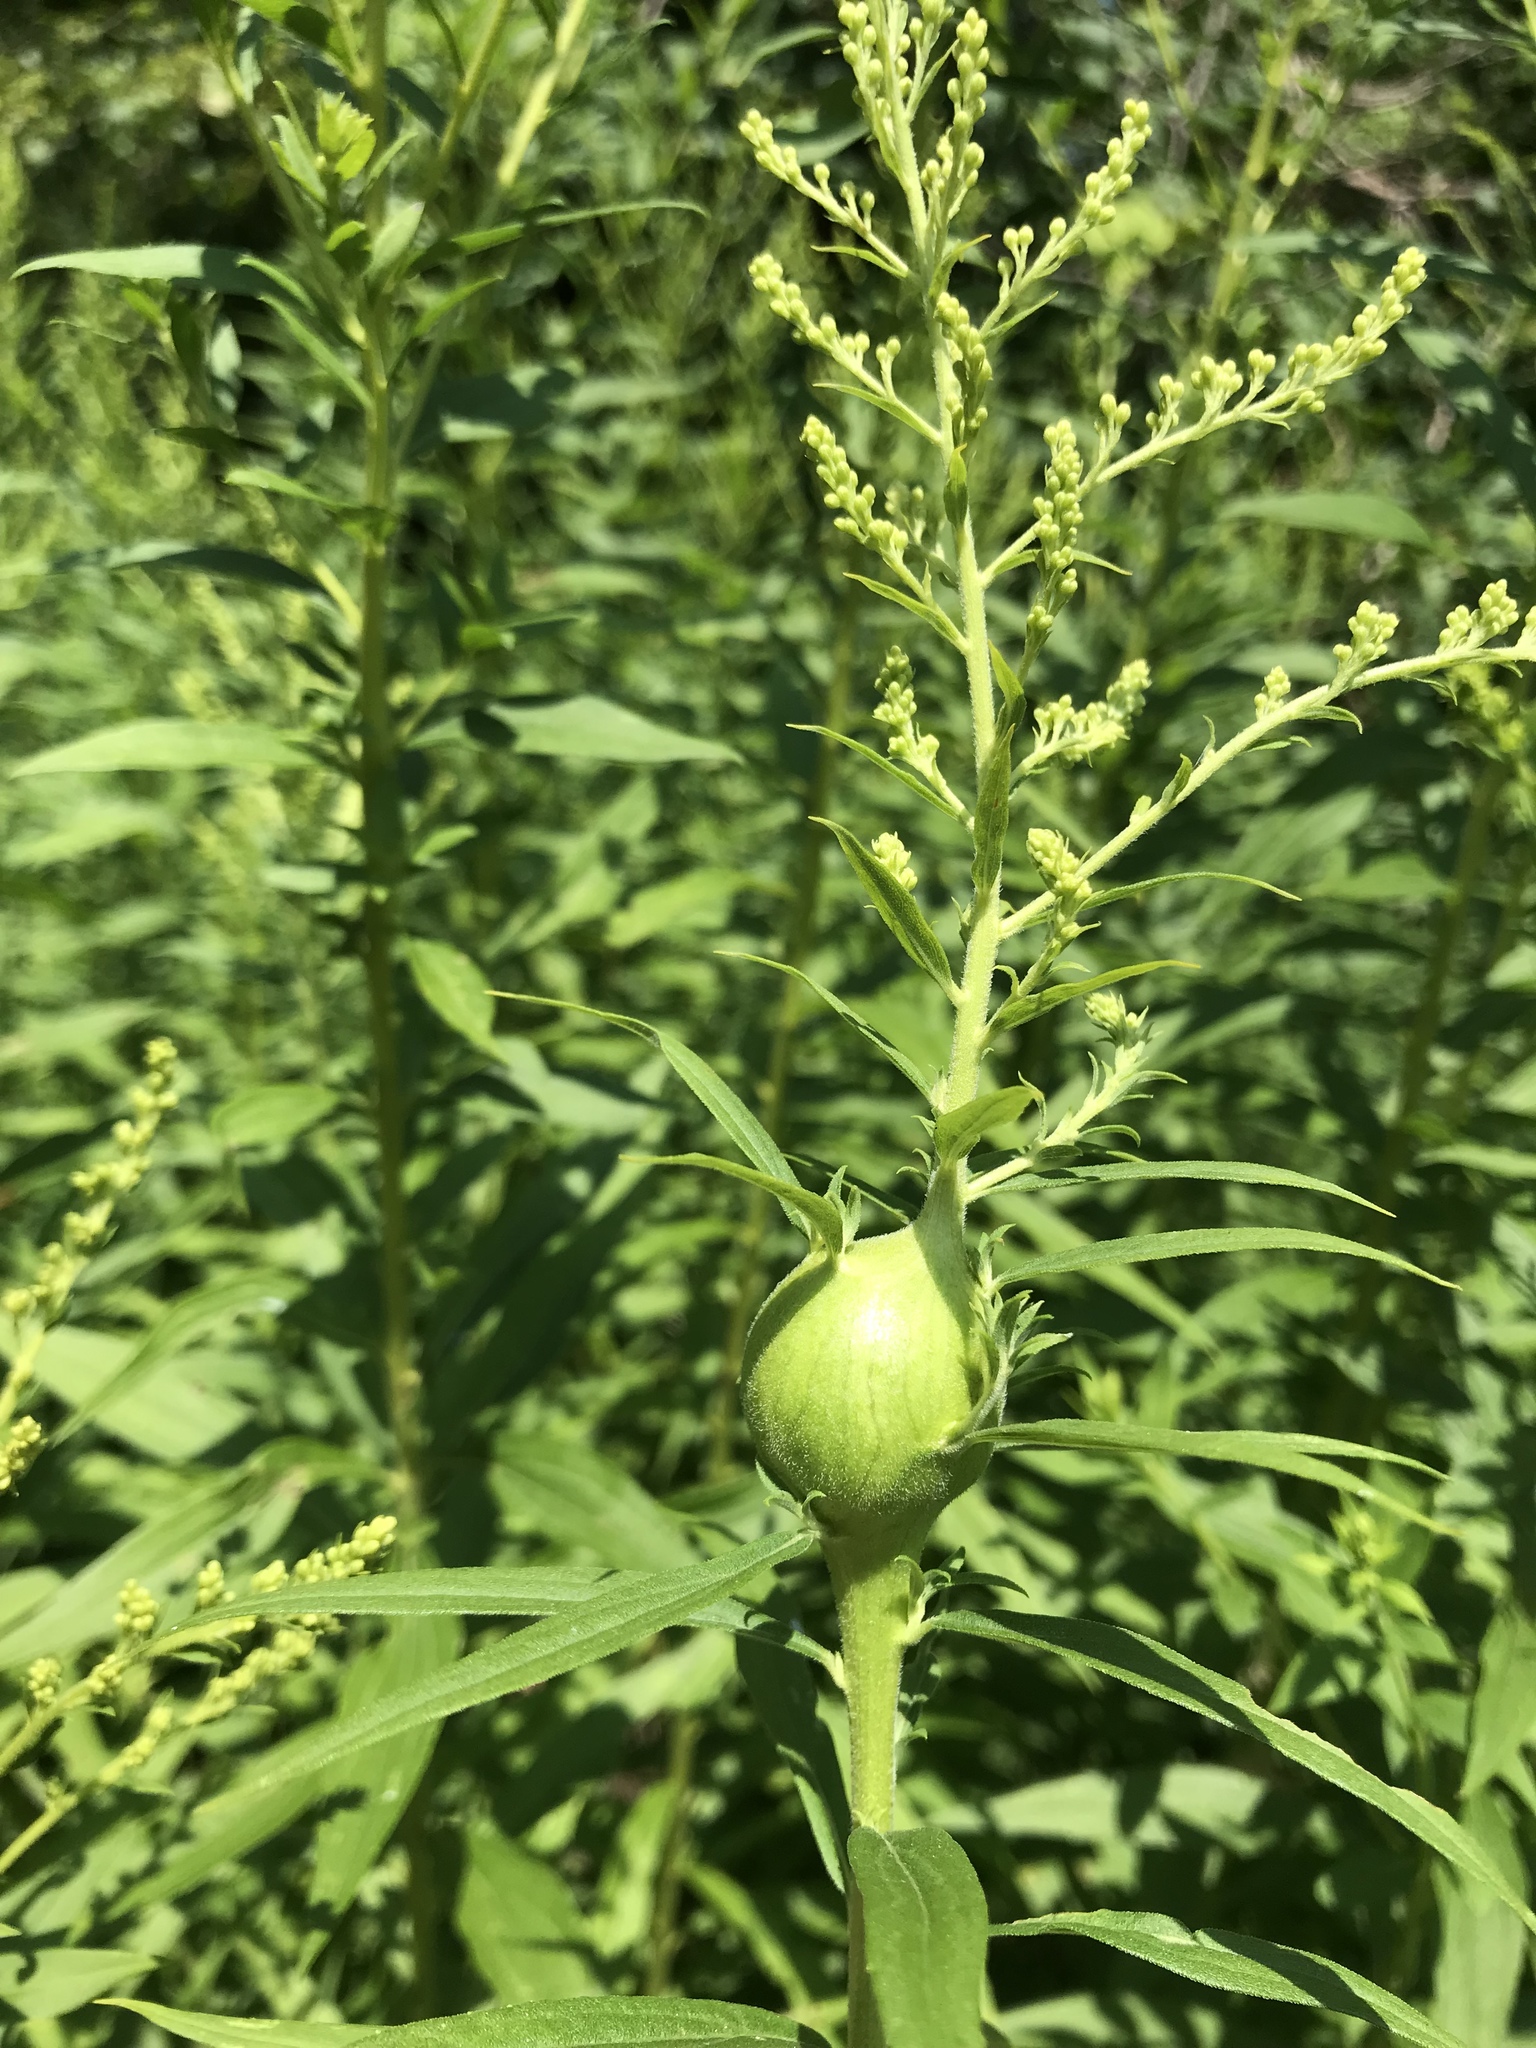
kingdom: Animalia
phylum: Arthropoda
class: Insecta
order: Diptera
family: Tephritidae
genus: Eurosta
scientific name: Eurosta solidaginis
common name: Goldenrod gall fly
